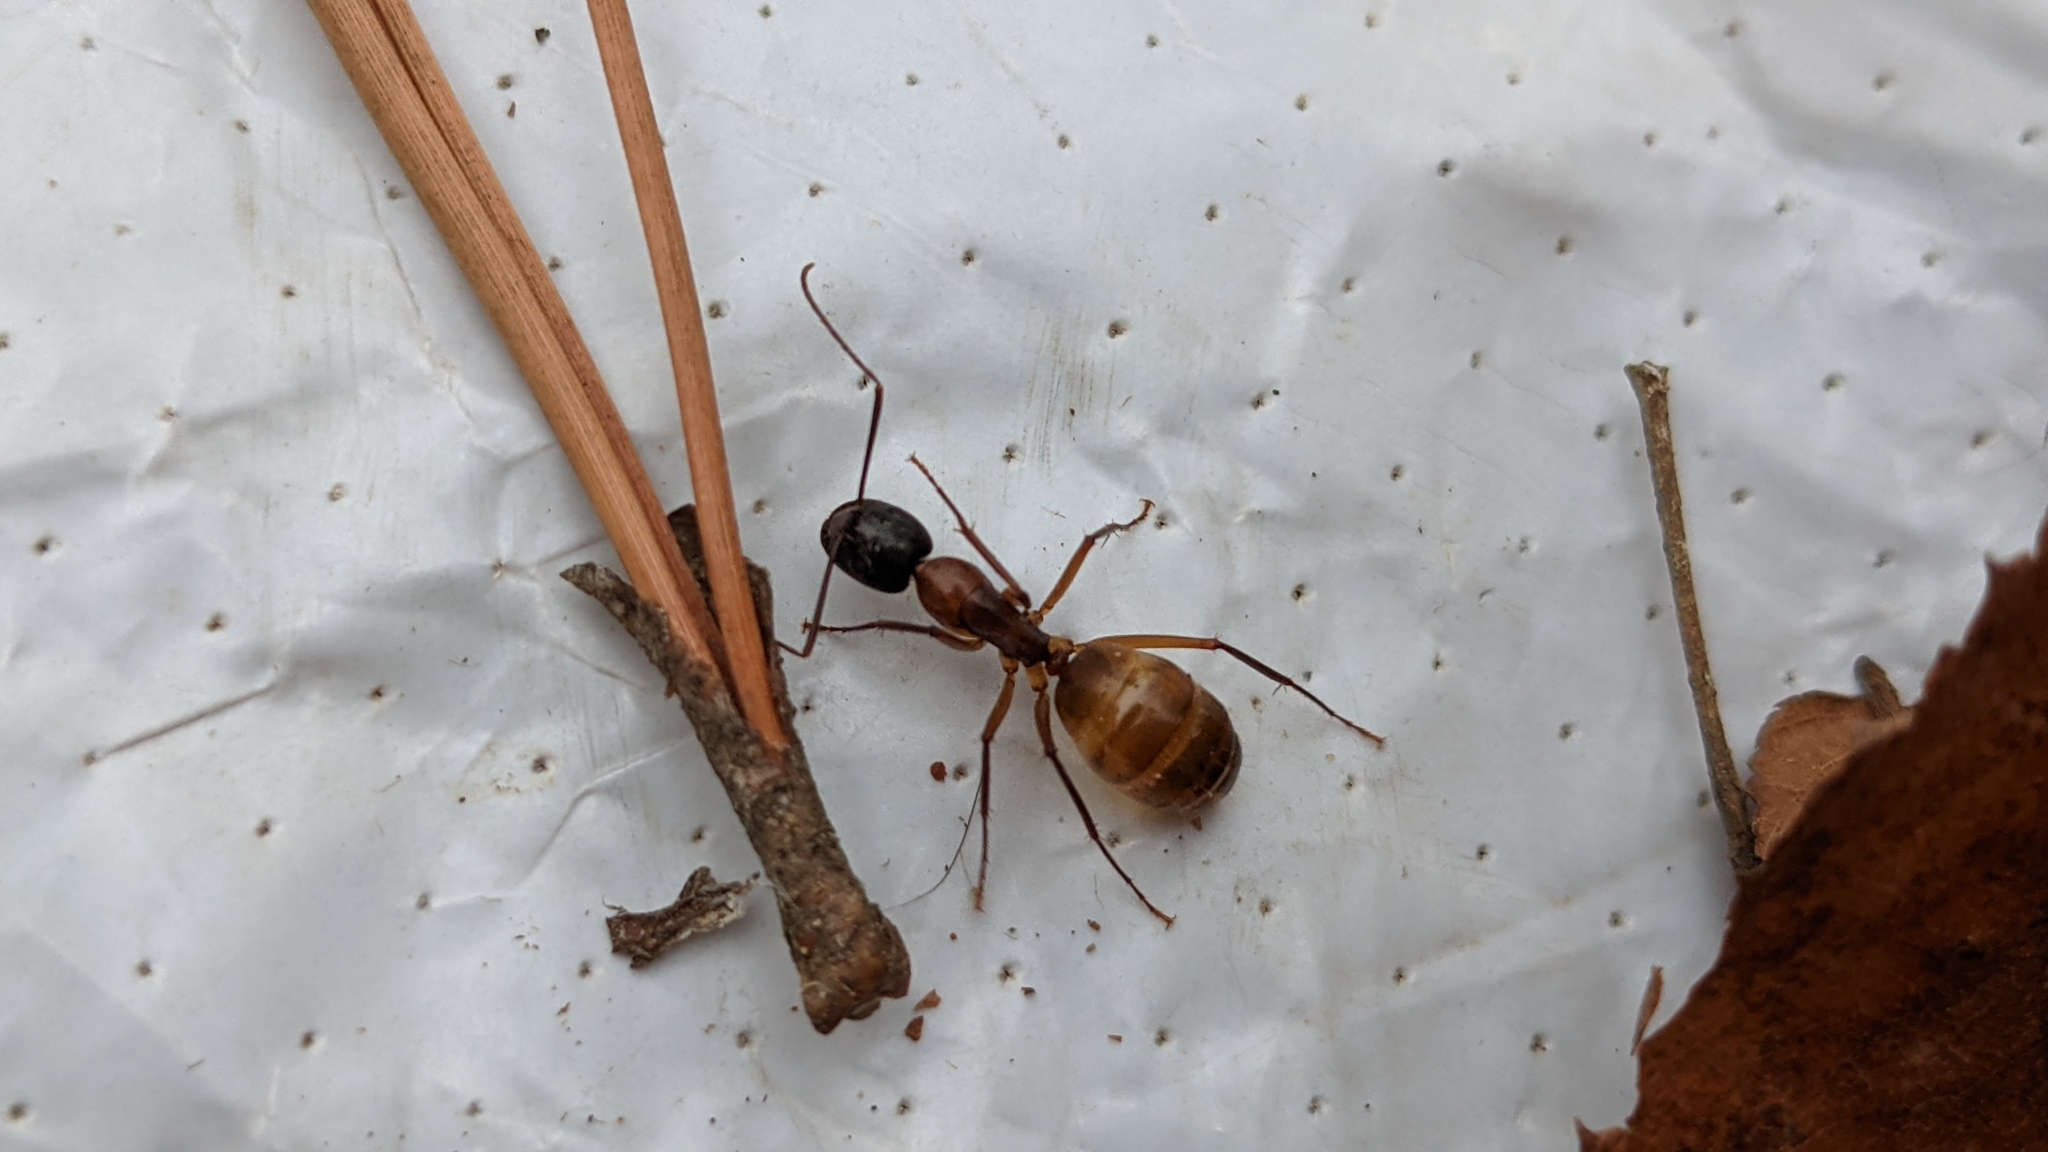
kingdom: Animalia
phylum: Arthropoda
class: Insecta
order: Hymenoptera
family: Formicidae
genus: Camponotus
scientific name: Camponotus americanus
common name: American carpenter ant
